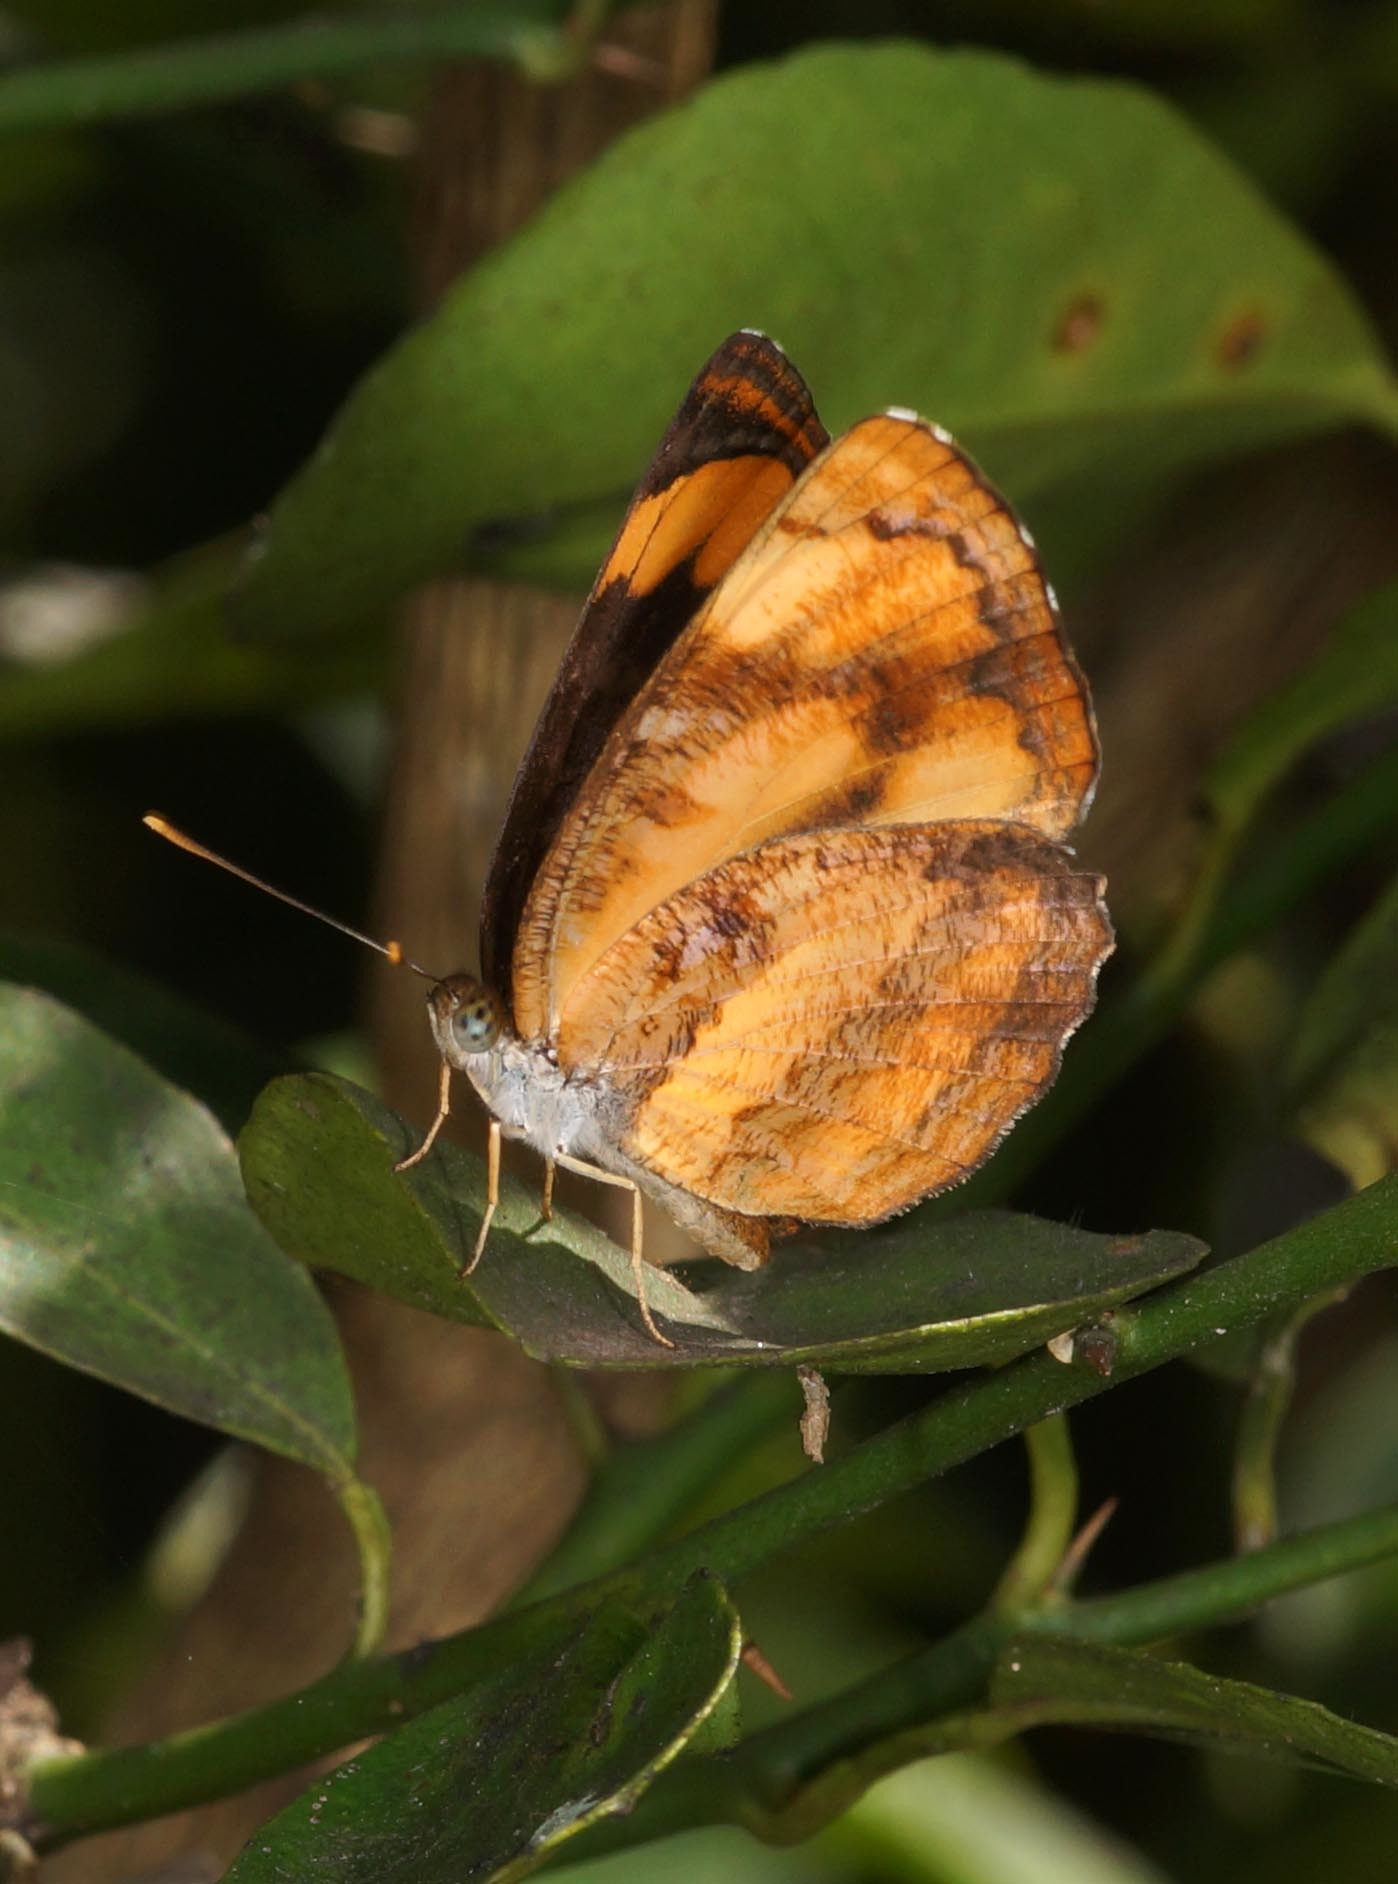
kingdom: Animalia
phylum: Arthropoda
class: Insecta
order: Lepidoptera
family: Nymphalidae
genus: Pantoporia
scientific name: Pantoporia hordonia
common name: Common lascar
